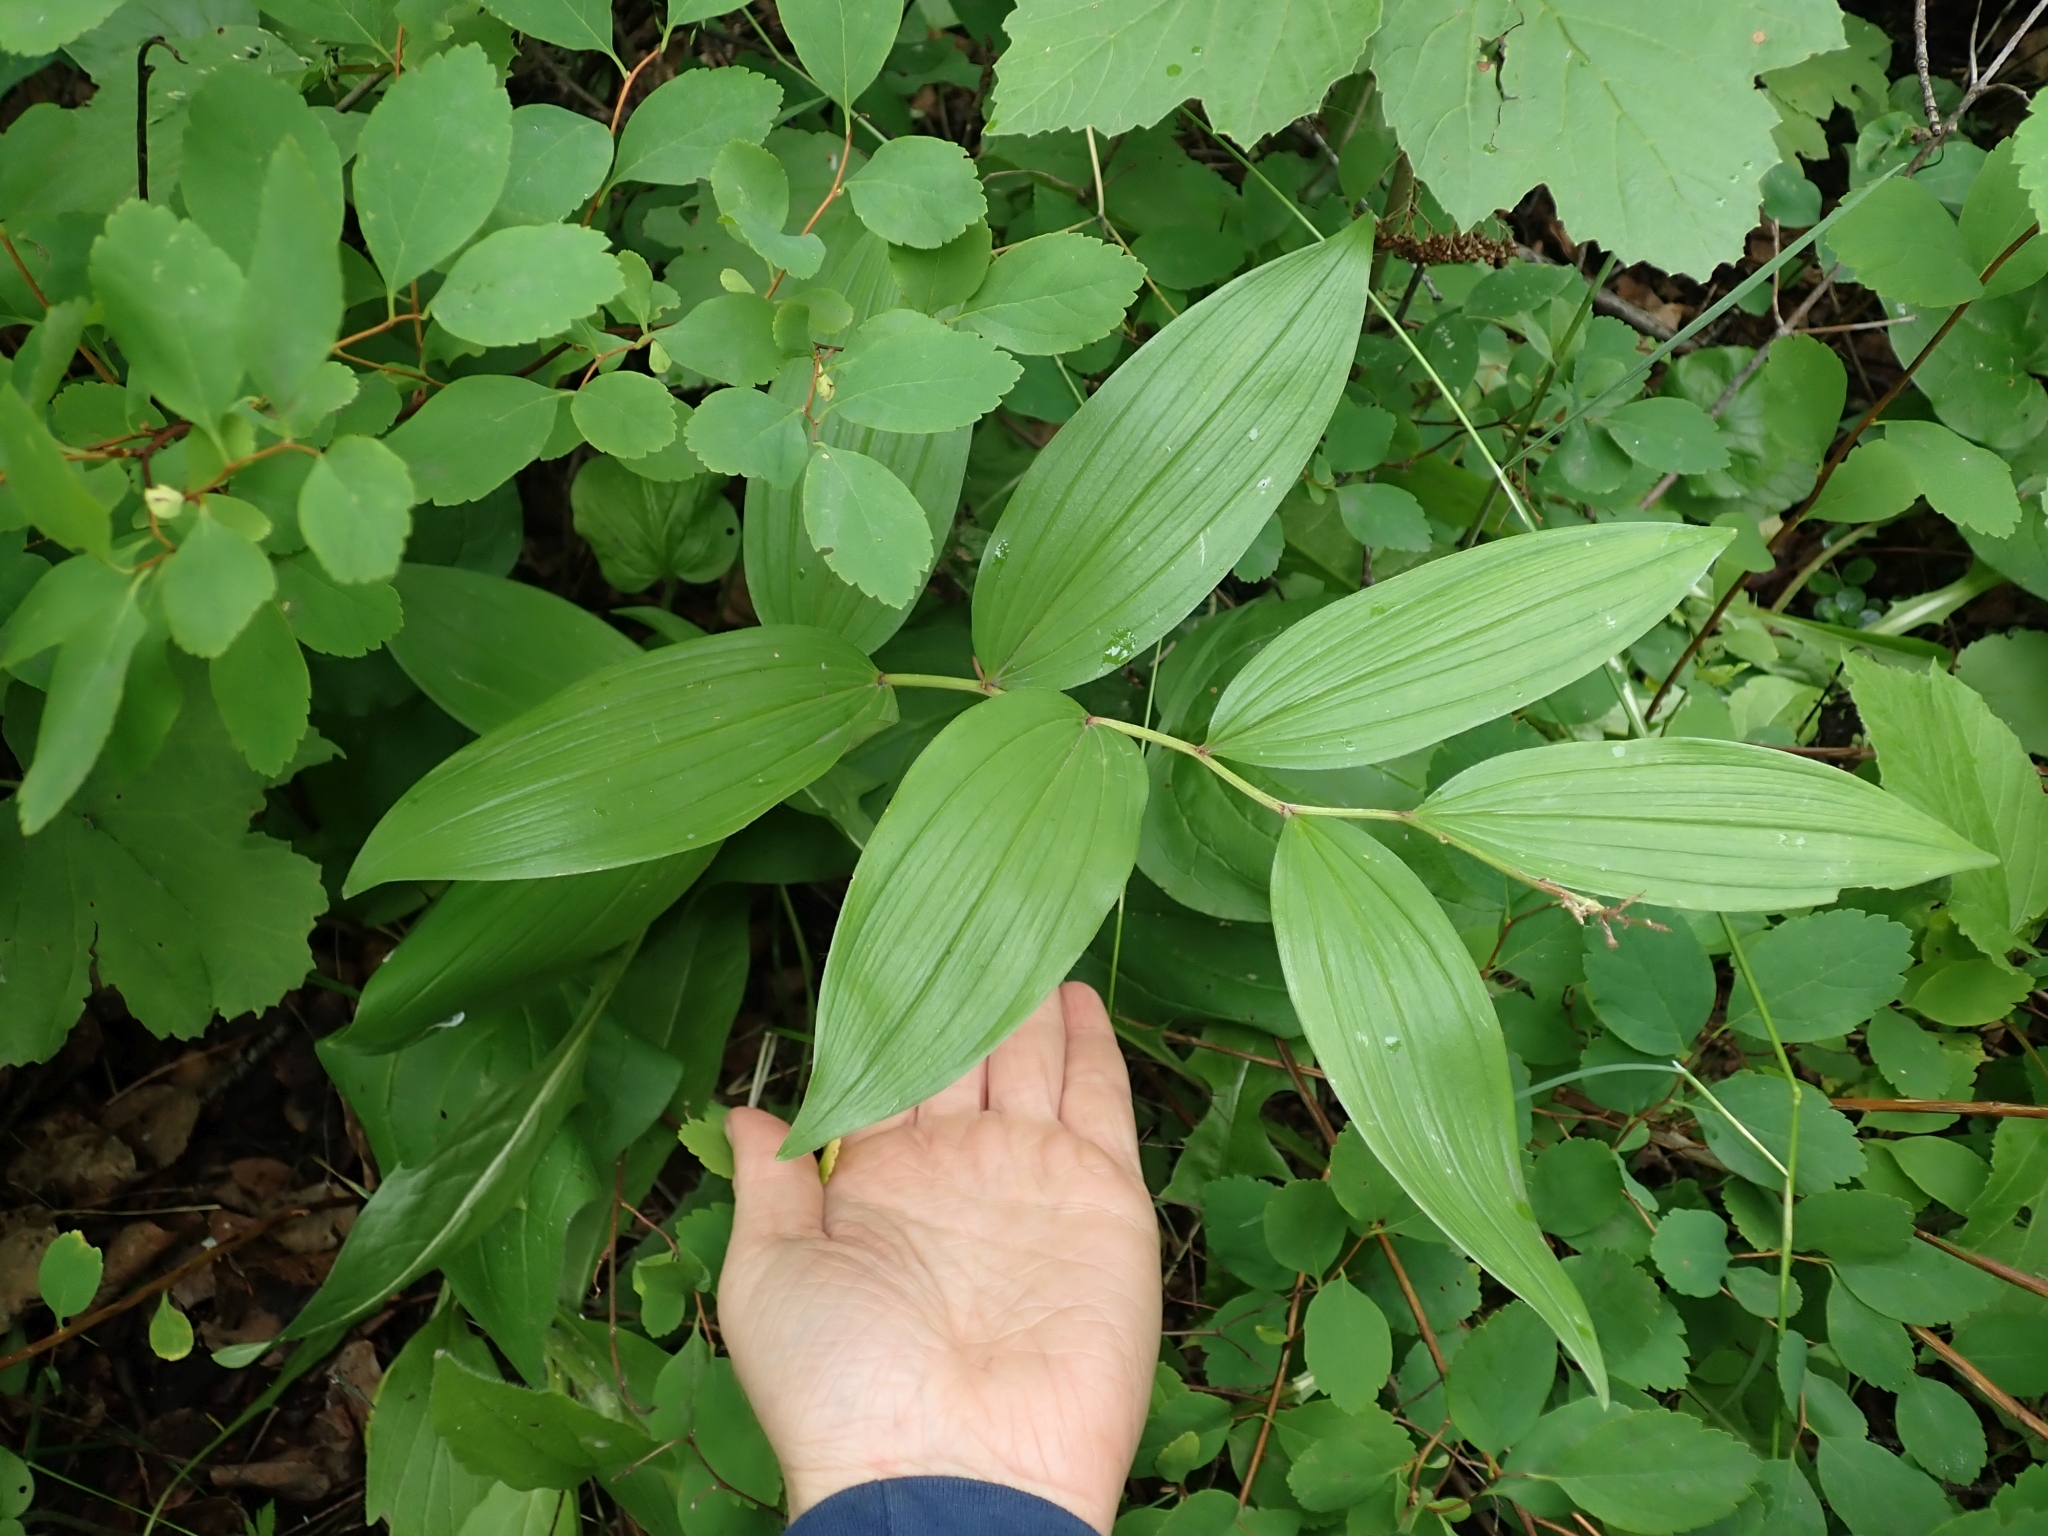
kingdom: Plantae
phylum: Tracheophyta
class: Liliopsida
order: Asparagales
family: Asparagaceae
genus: Maianthemum
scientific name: Maianthemum racemosum
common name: False spikenard
